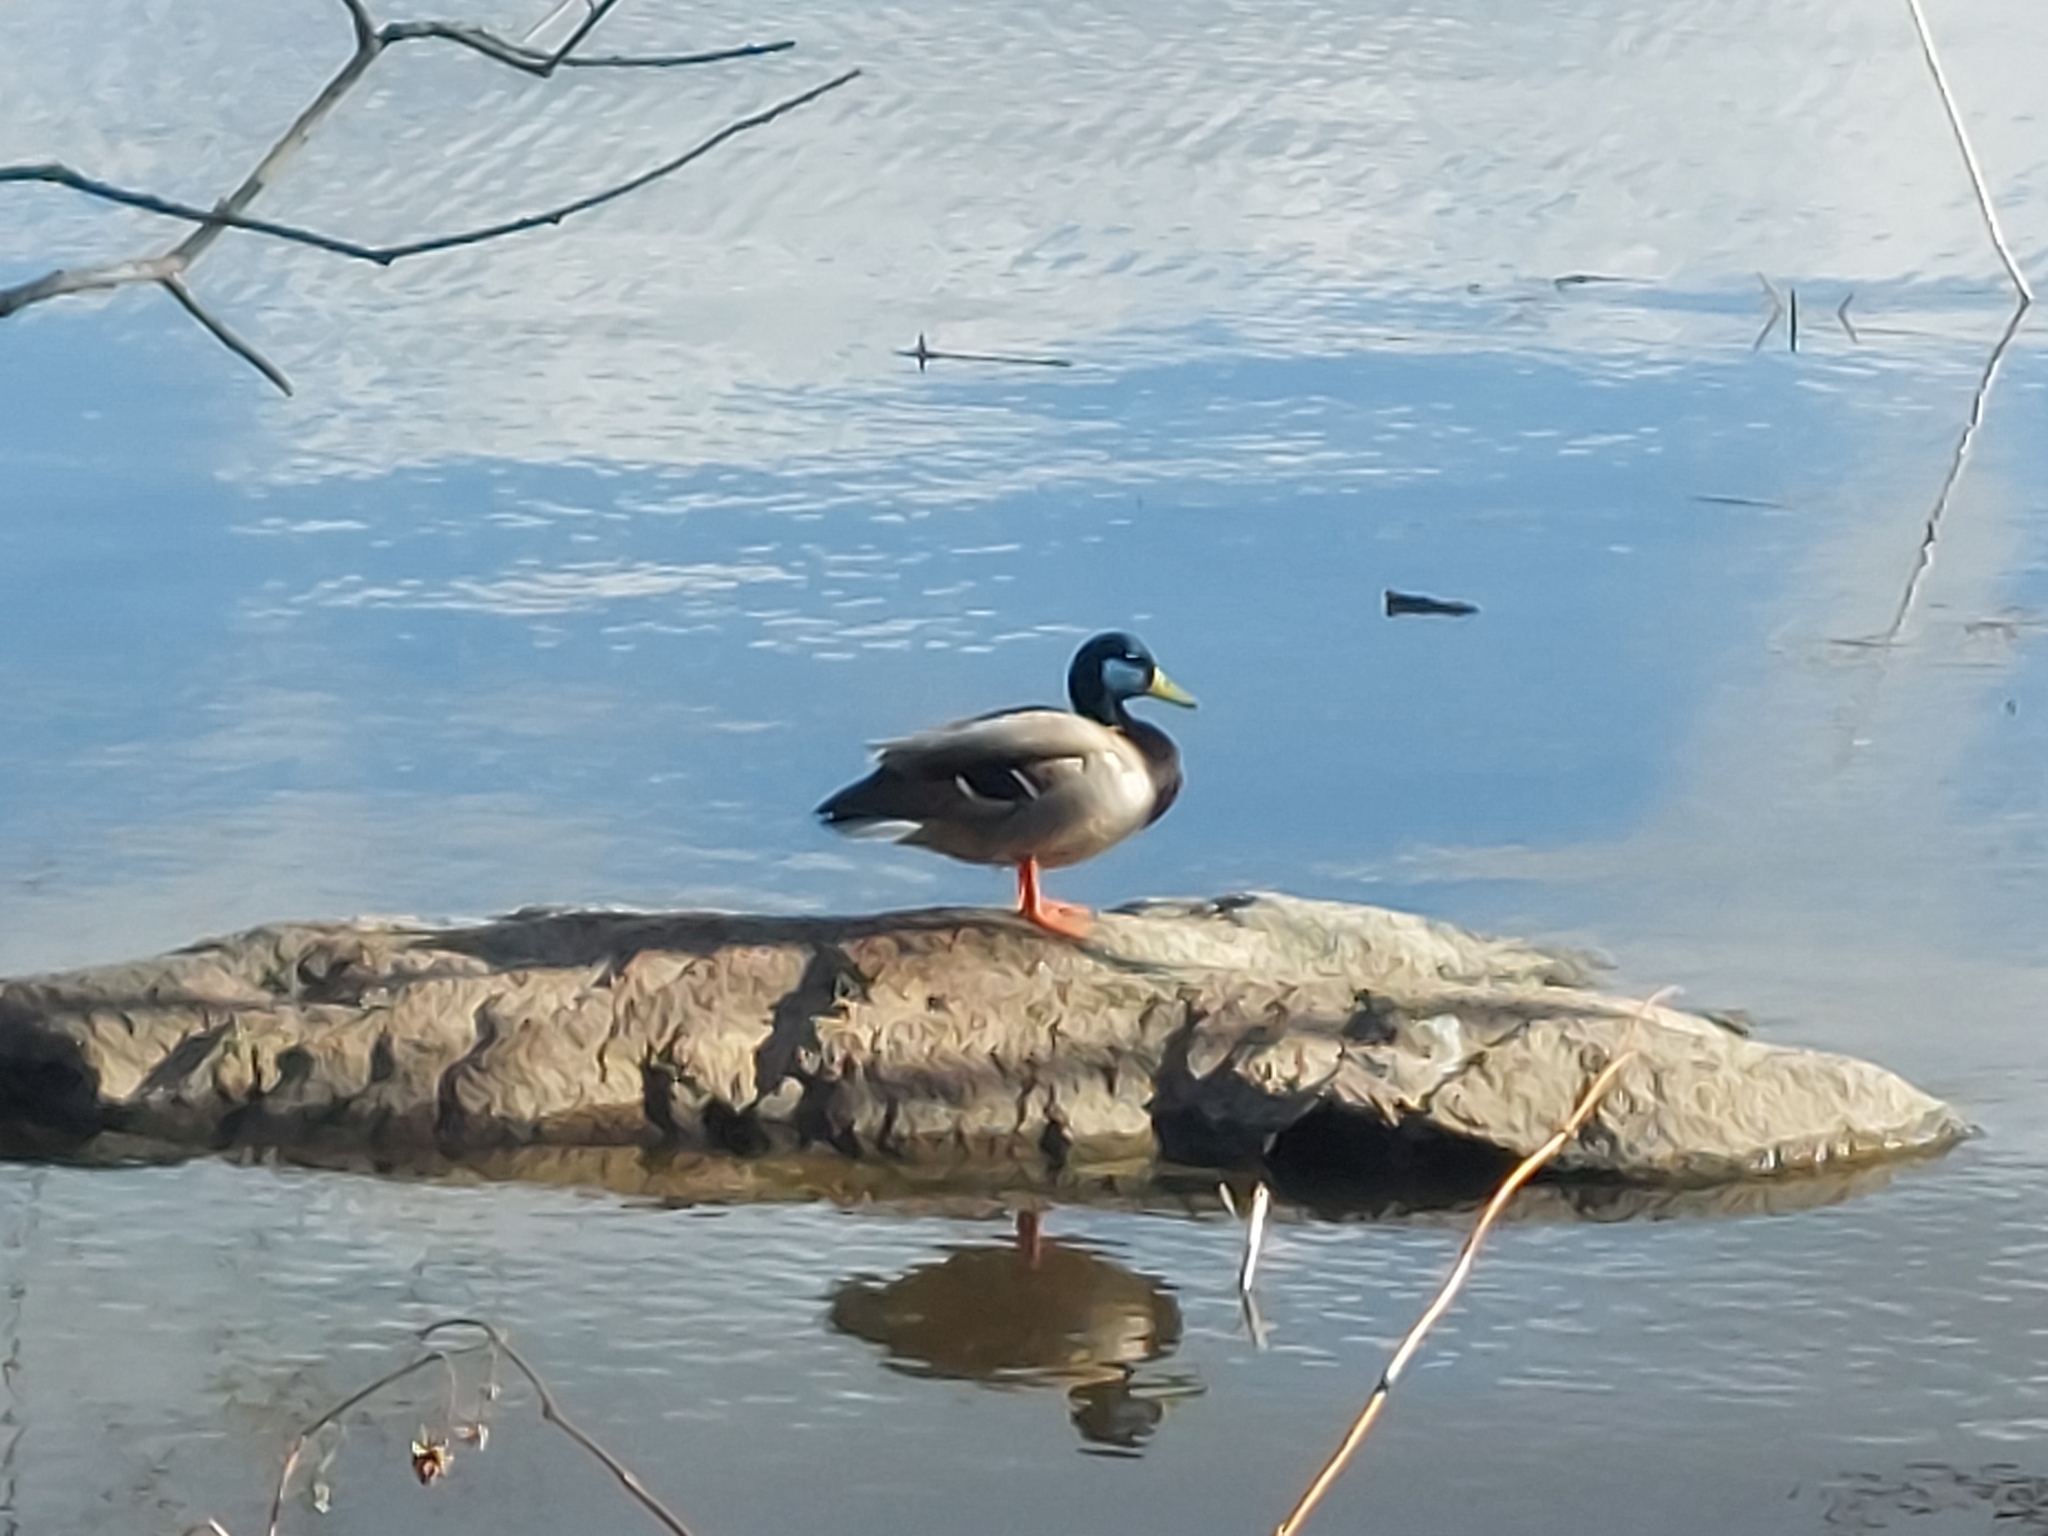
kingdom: Animalia
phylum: Chordata
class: Aves
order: Anseriformes
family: Anatidae
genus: Anas
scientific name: Anas platyrhynchos
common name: Mallard
